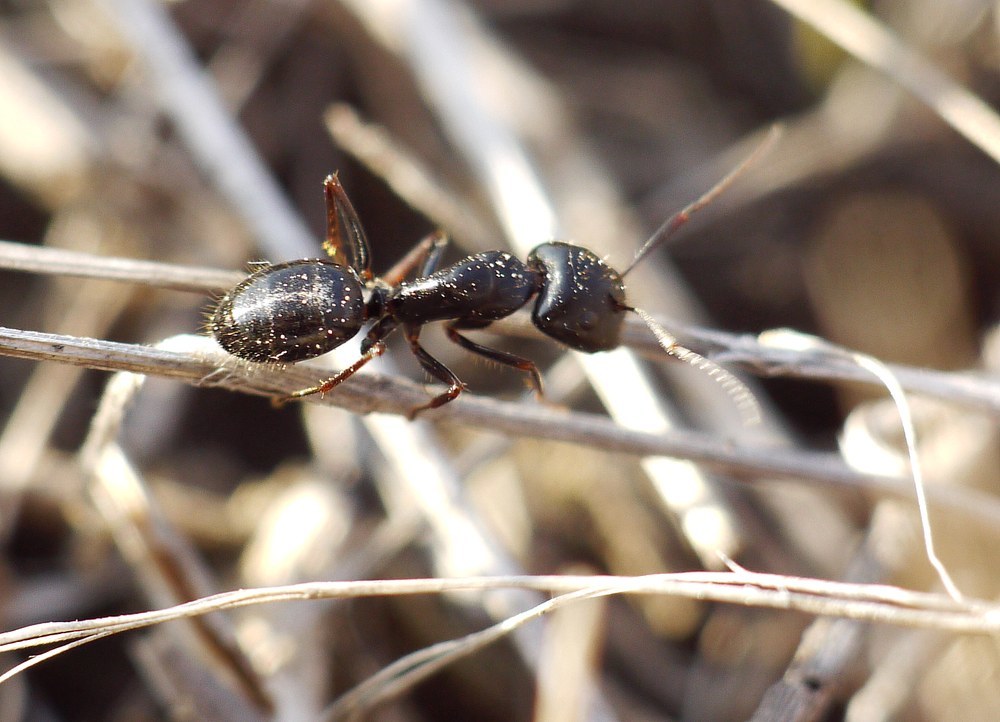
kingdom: Animalia
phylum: Arthropoda
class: Insecta
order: Hymenoptera
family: Formicidae
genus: Camponotus
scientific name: Camponotus aethiops
